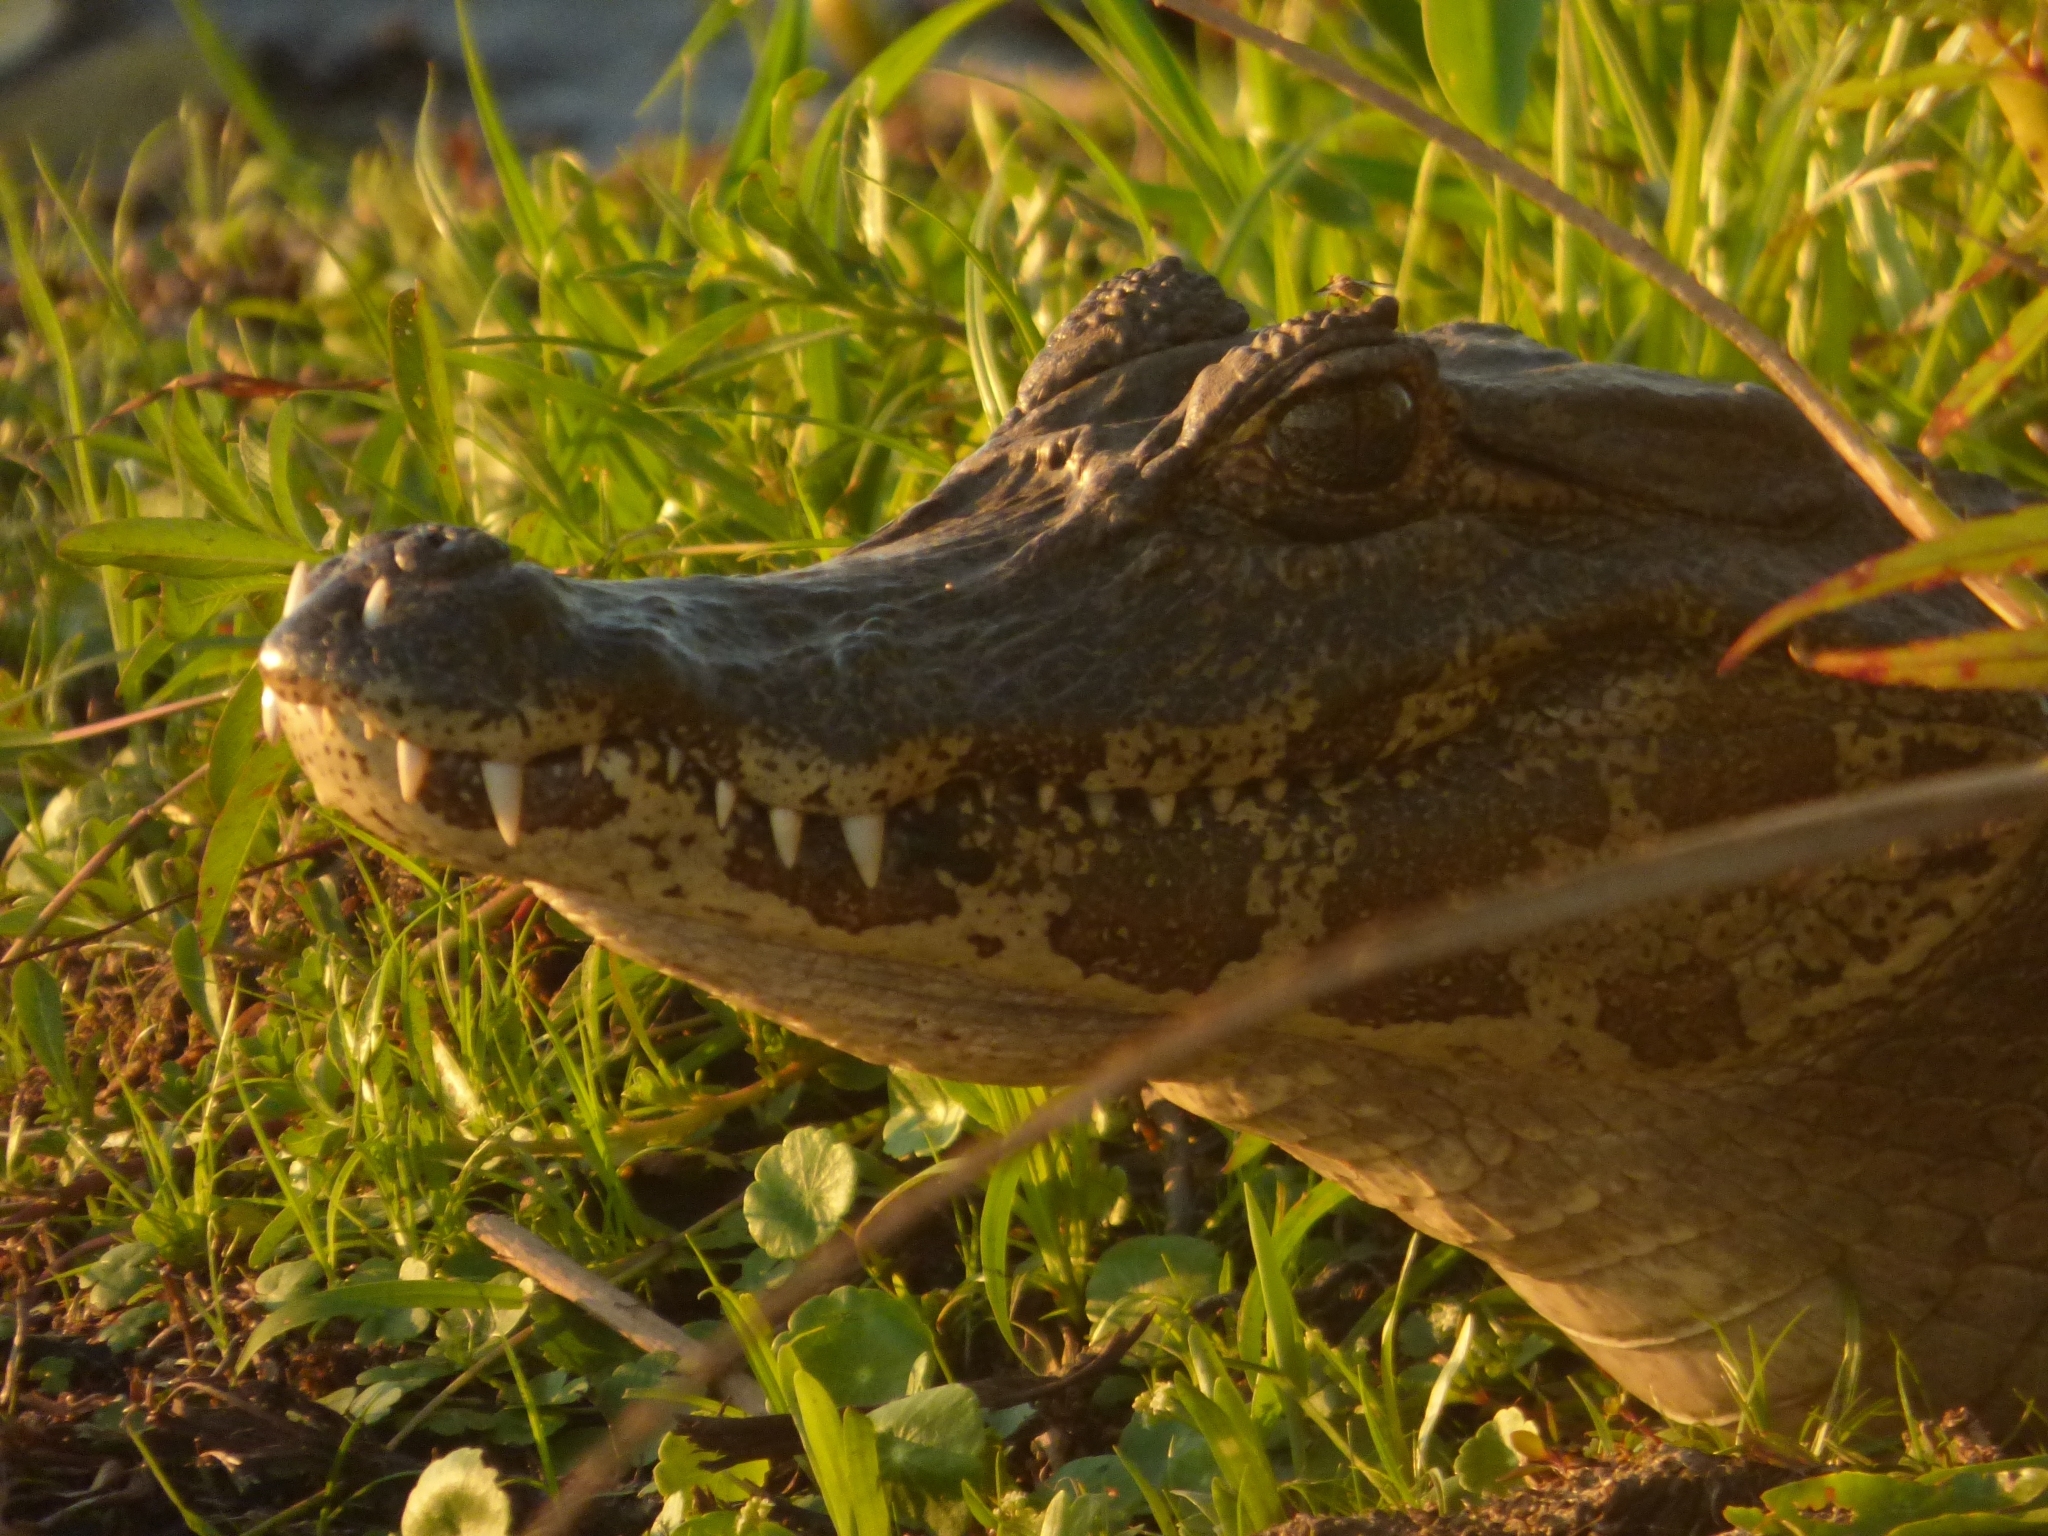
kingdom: Animalia
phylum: Chordata
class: Crocodylia
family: Alligatoridae
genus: Caiman
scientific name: Caiman yacare
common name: Yacare caiman
